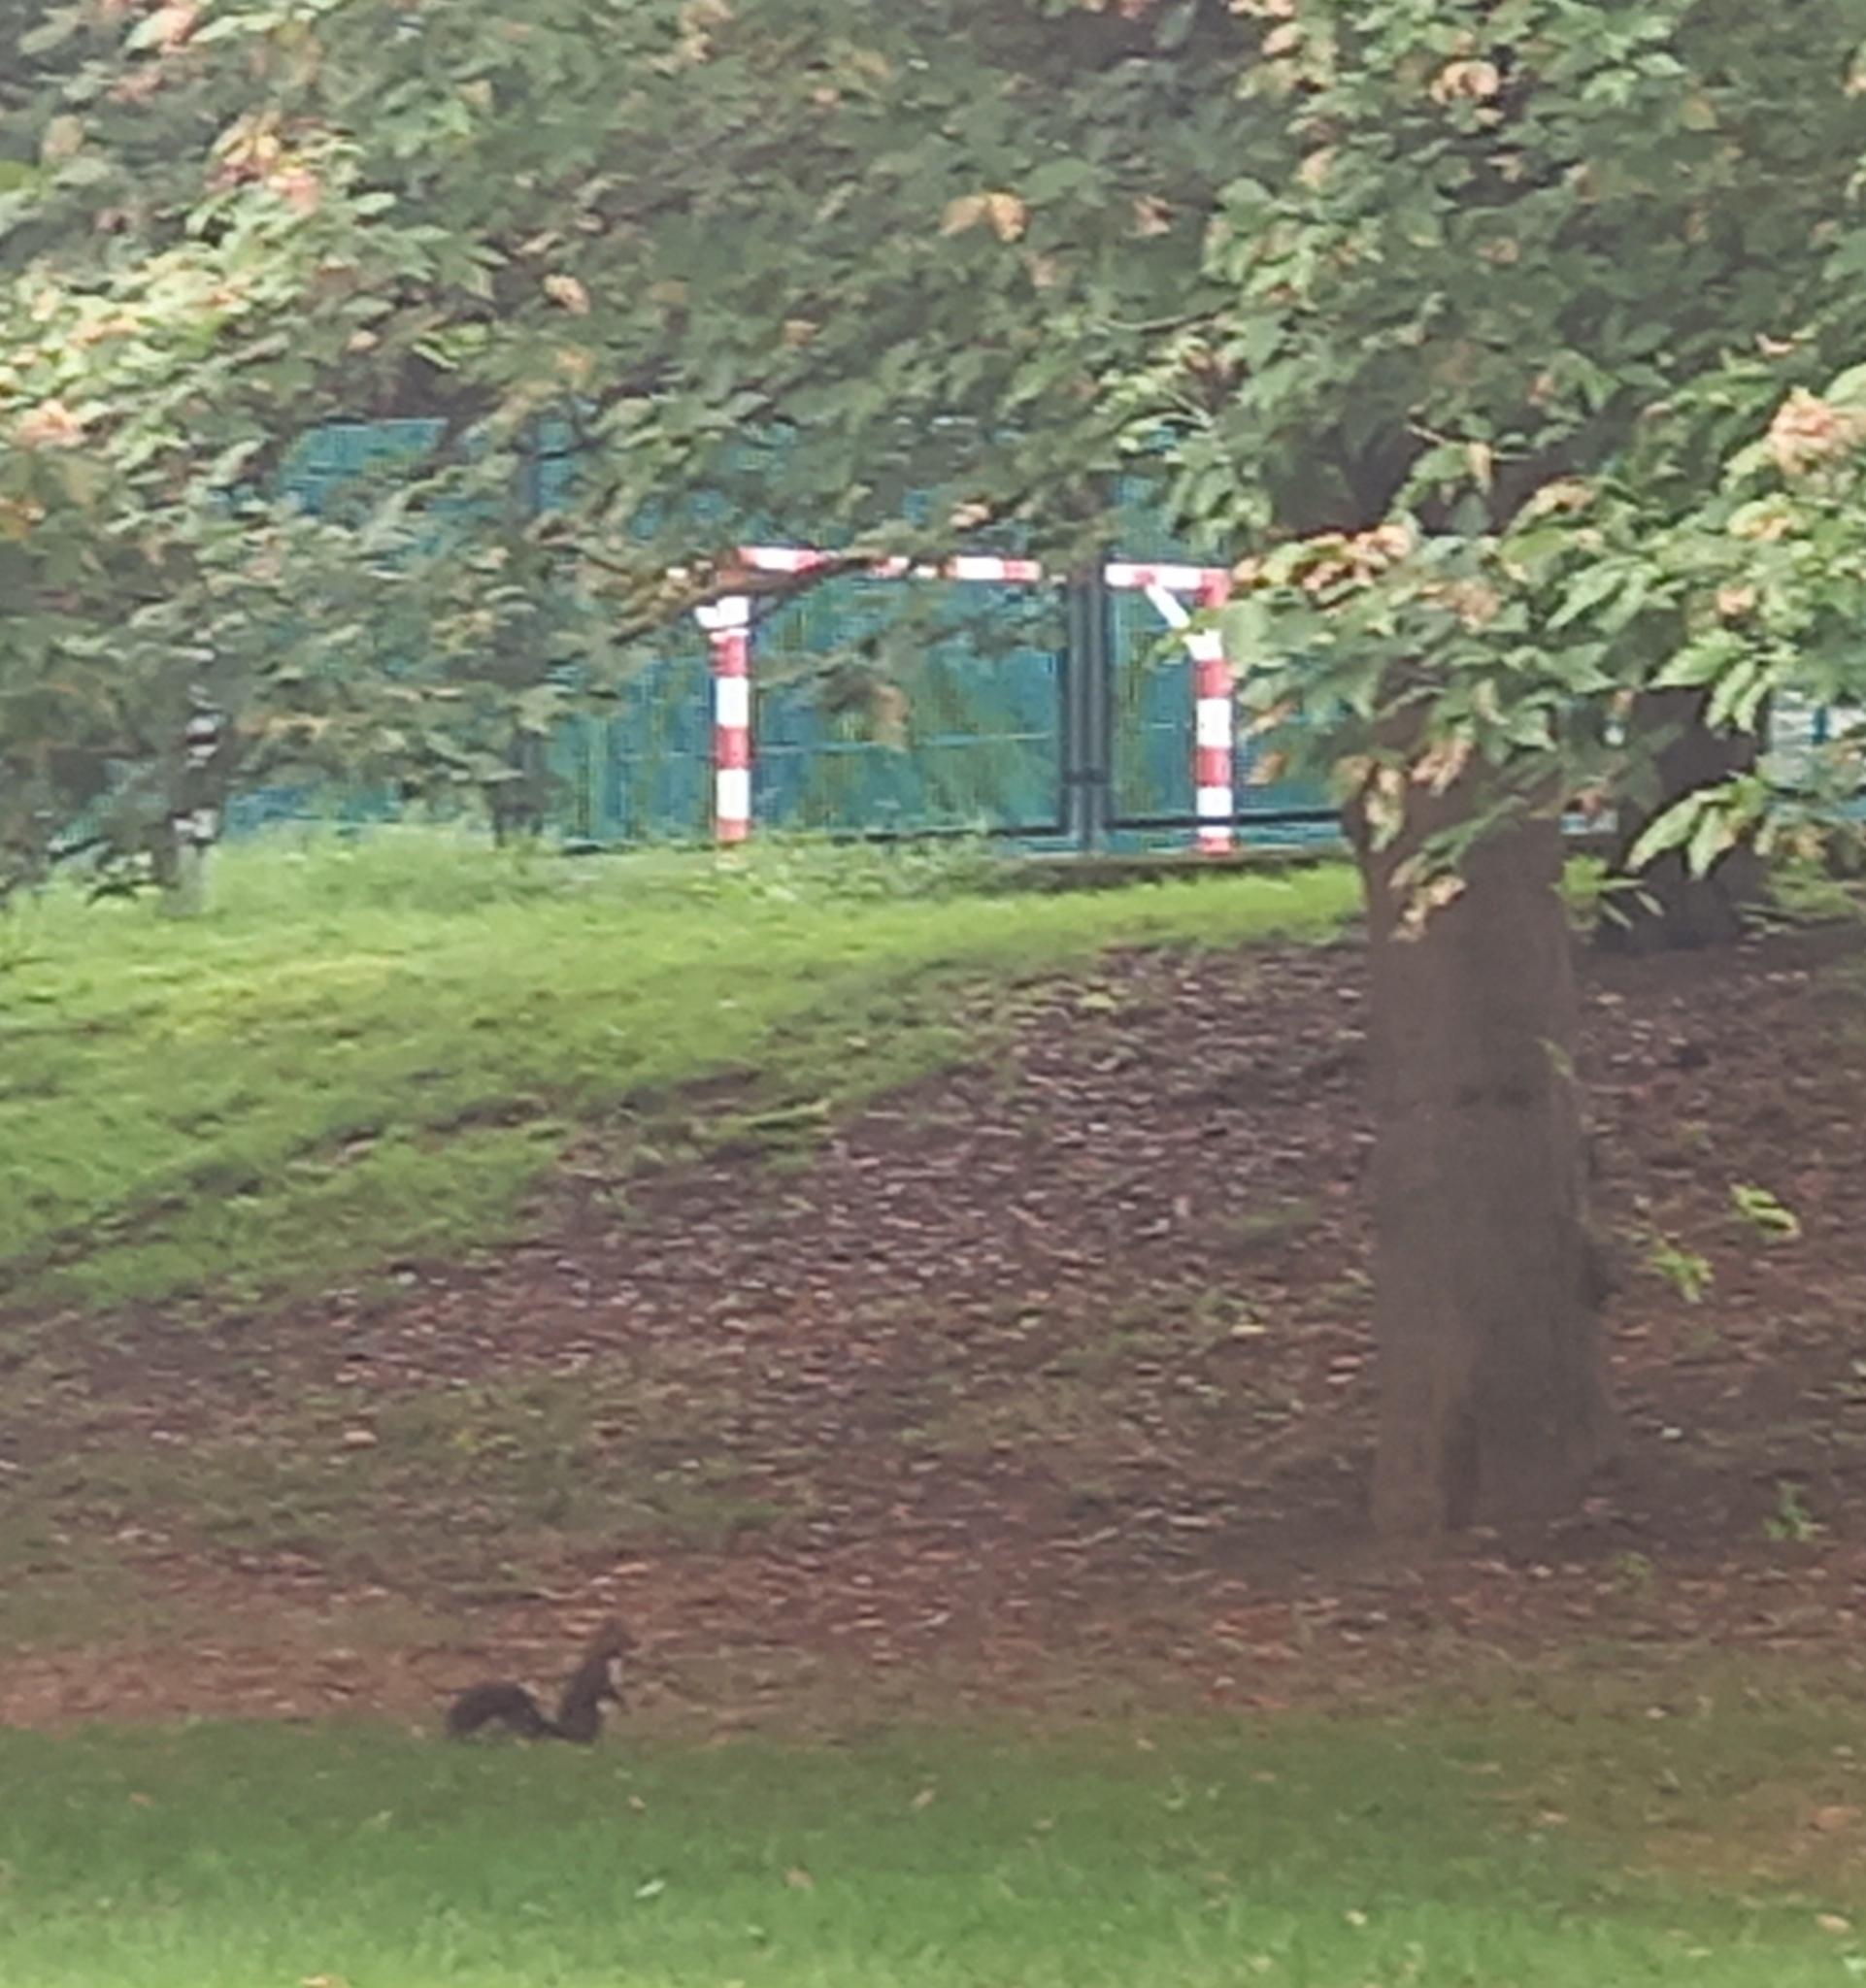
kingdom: Animalia
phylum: Chordata
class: Mammalia
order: Rodentia
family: Sciuridae
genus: Sciurus
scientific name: Sciurus vulgaris
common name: Eurasian red squirrel
